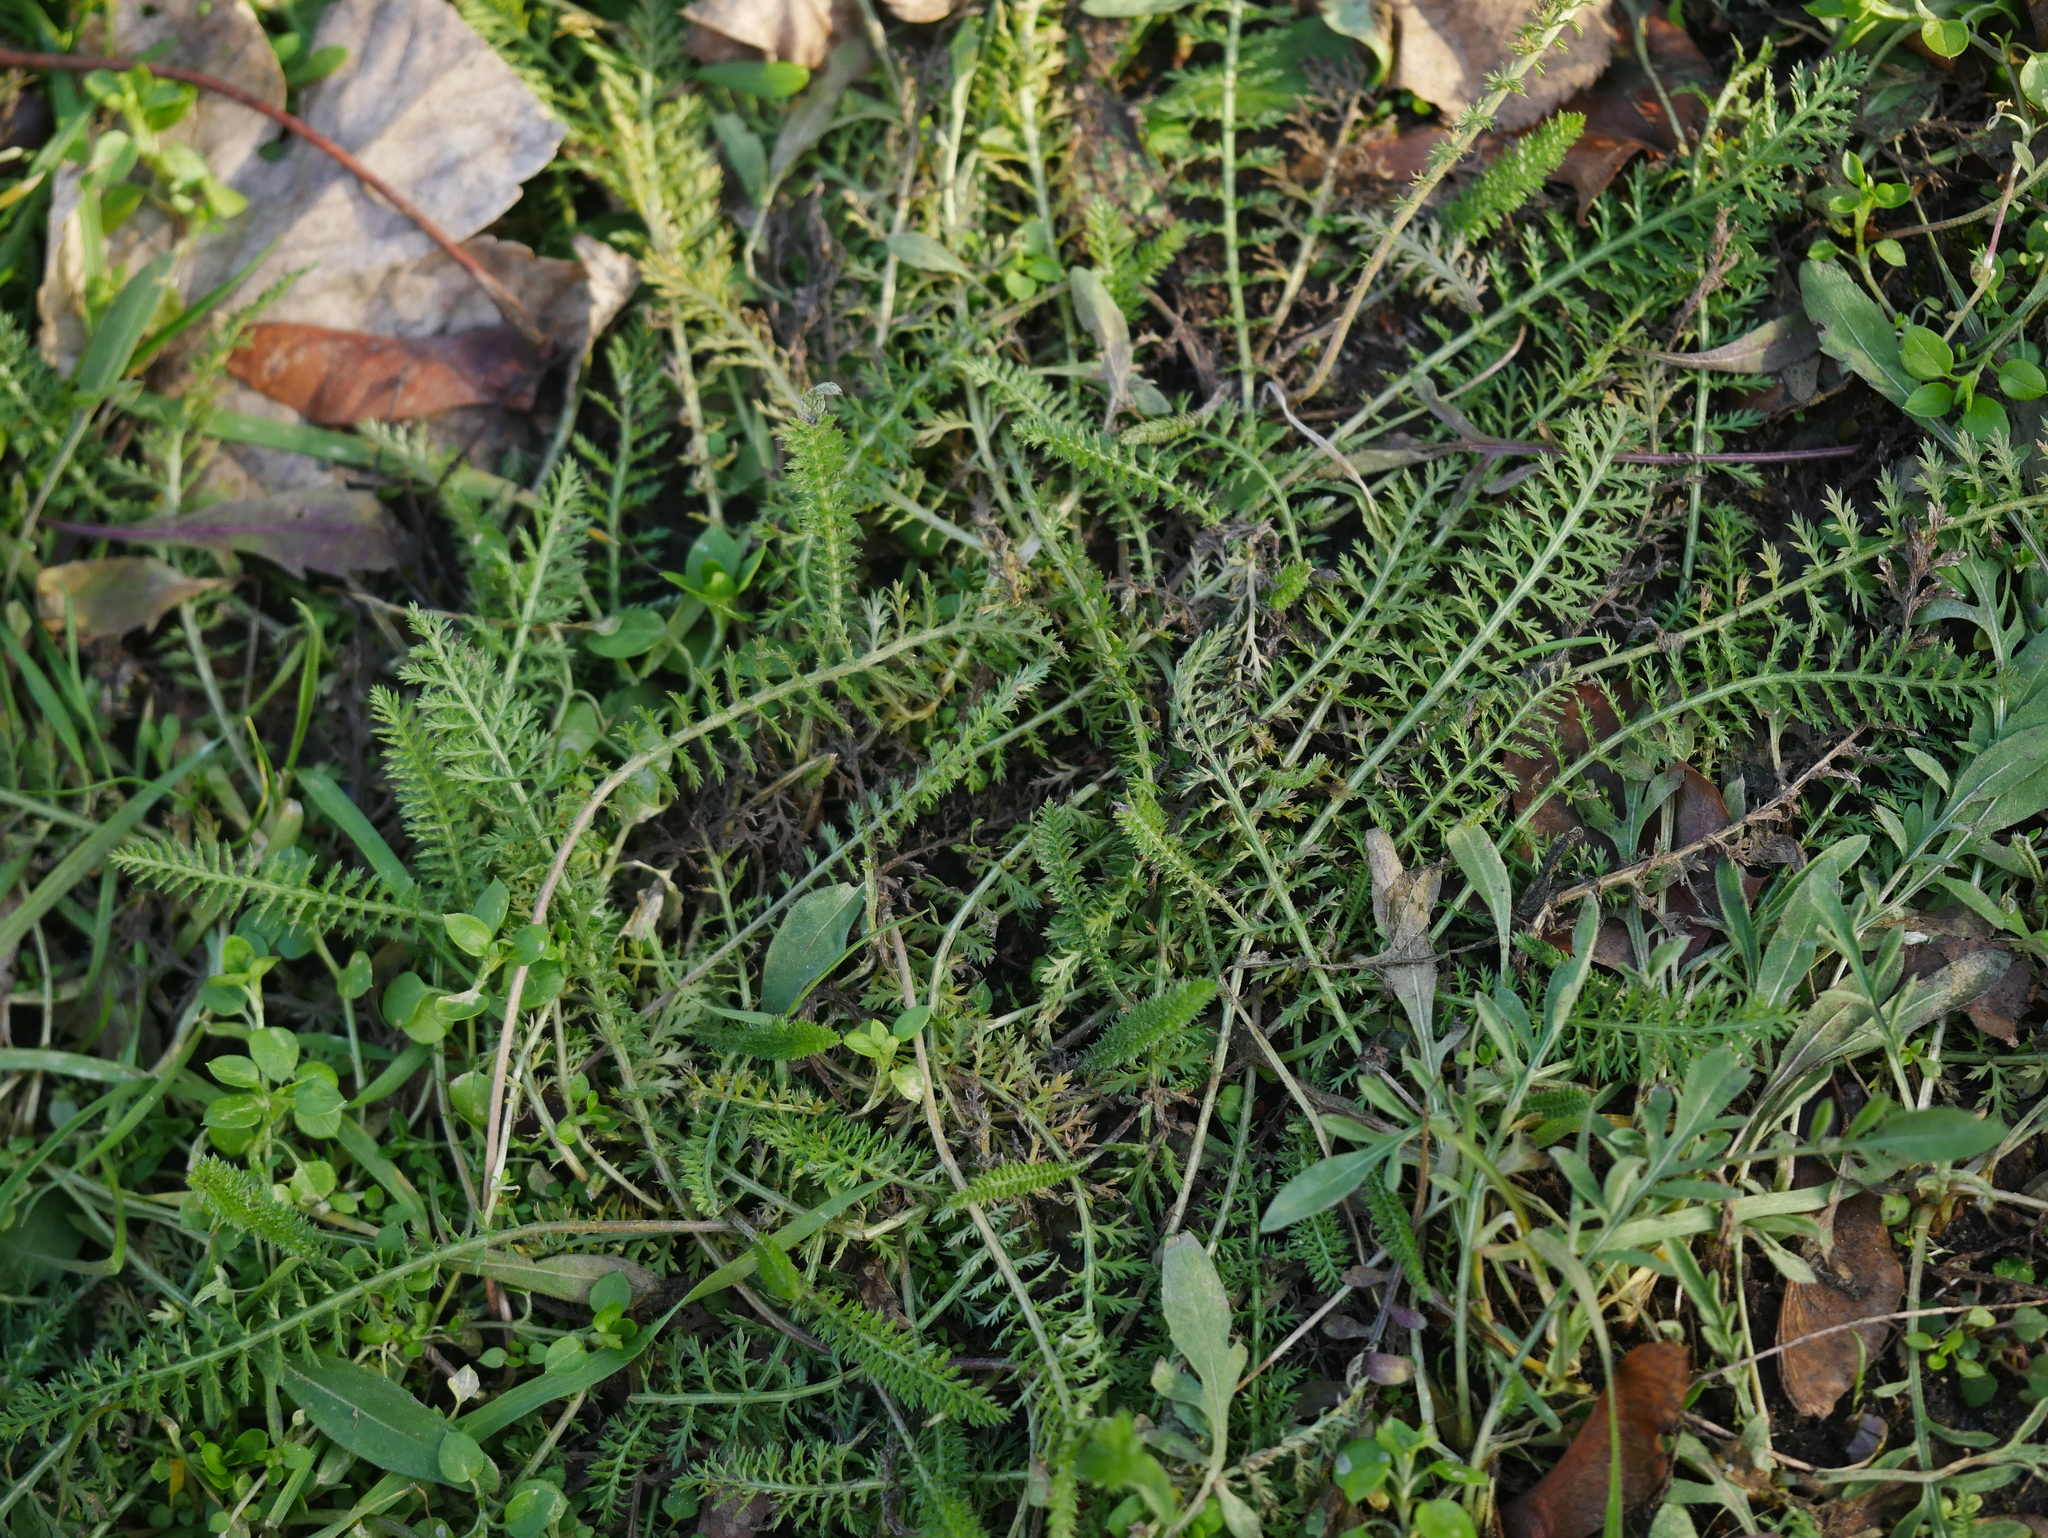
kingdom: Plantae
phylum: Tracheophyta
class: Magnoliopsida
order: Asterales
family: Asteraceae
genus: Achillea
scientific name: Achillea millefolium
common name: Yarrow
